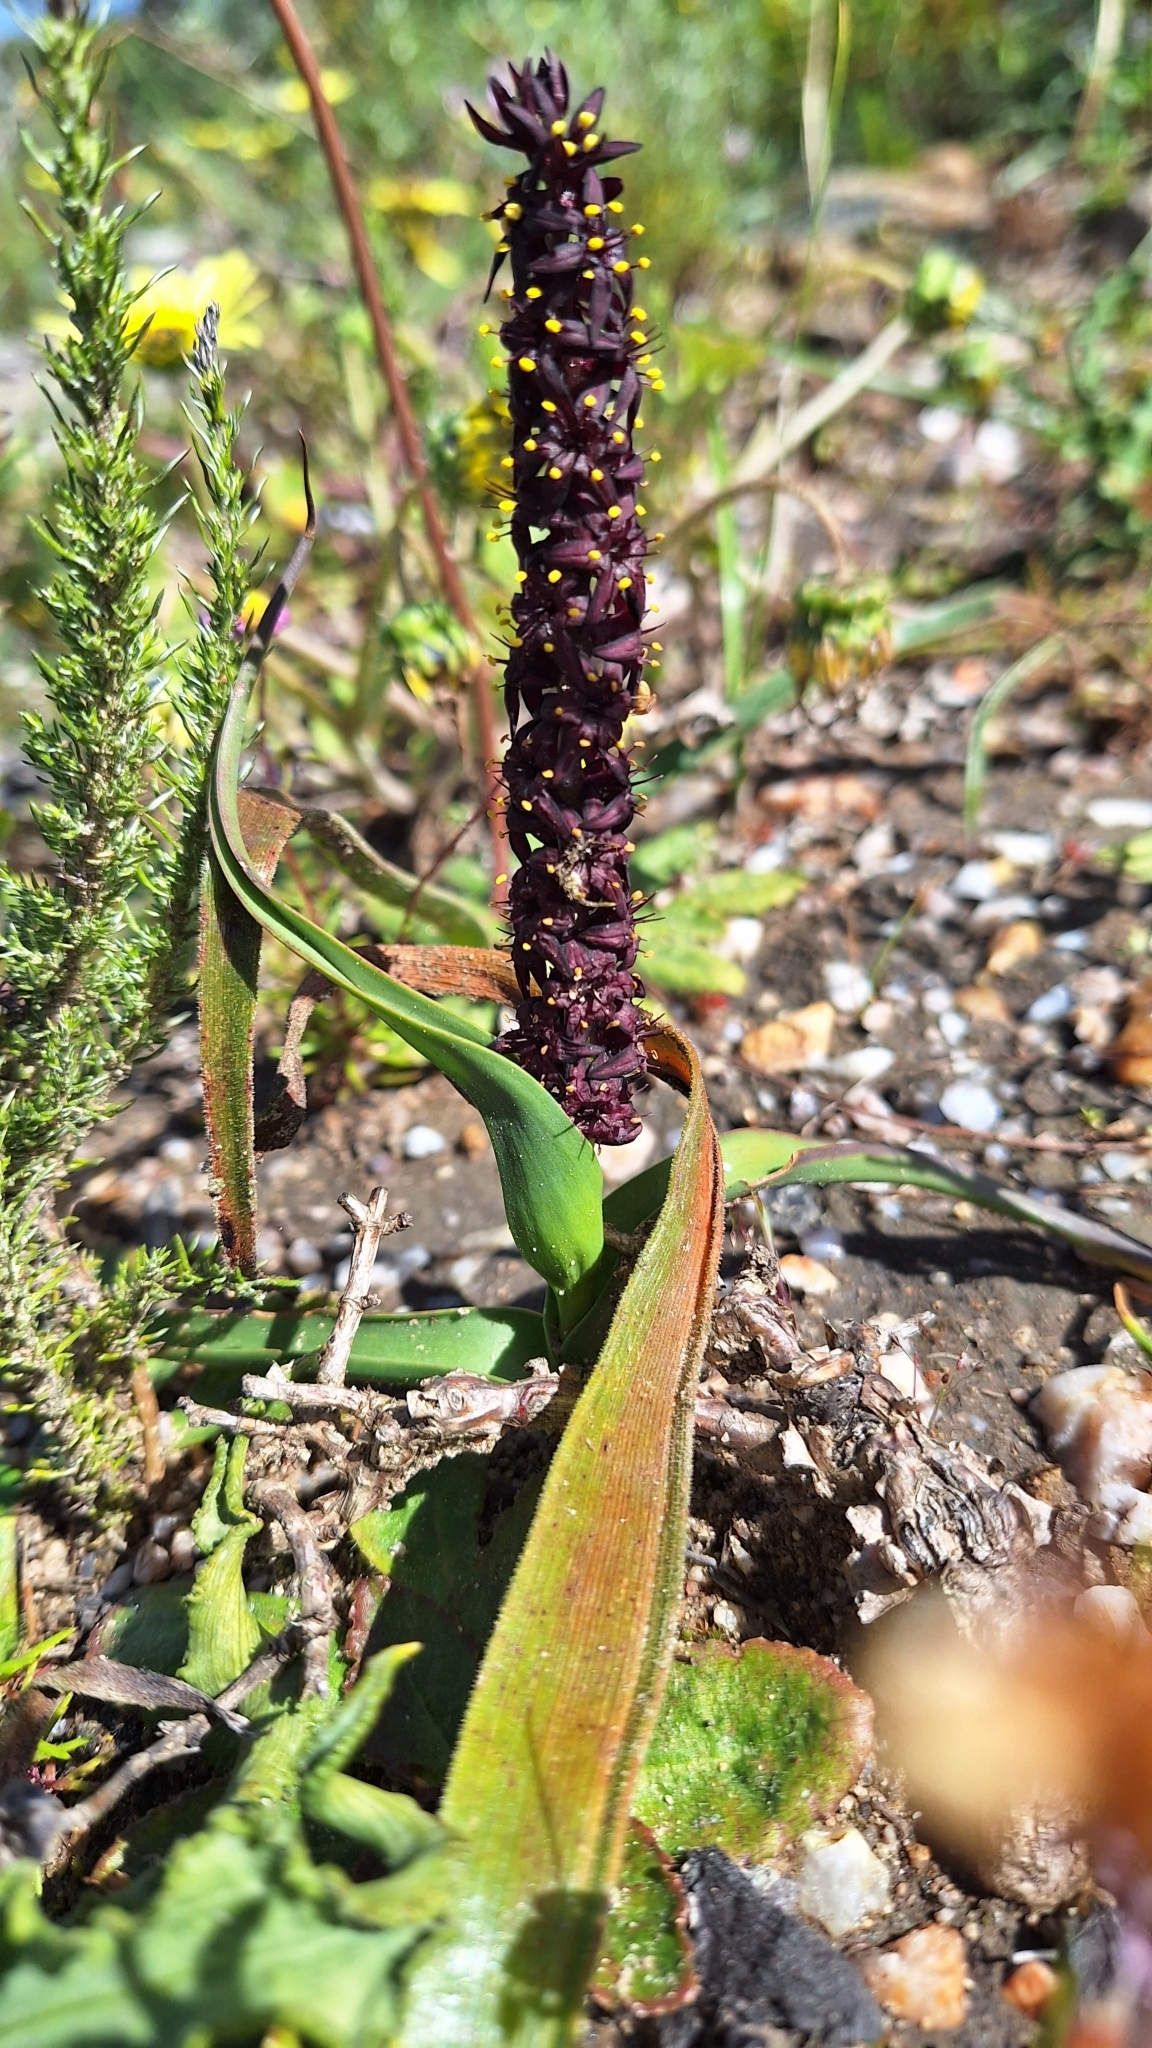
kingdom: Plantae
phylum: Tracheophyta
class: Liliopsida
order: Liliales
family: Colchicaceae
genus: Wurmbea
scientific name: Wurmbea recurva
